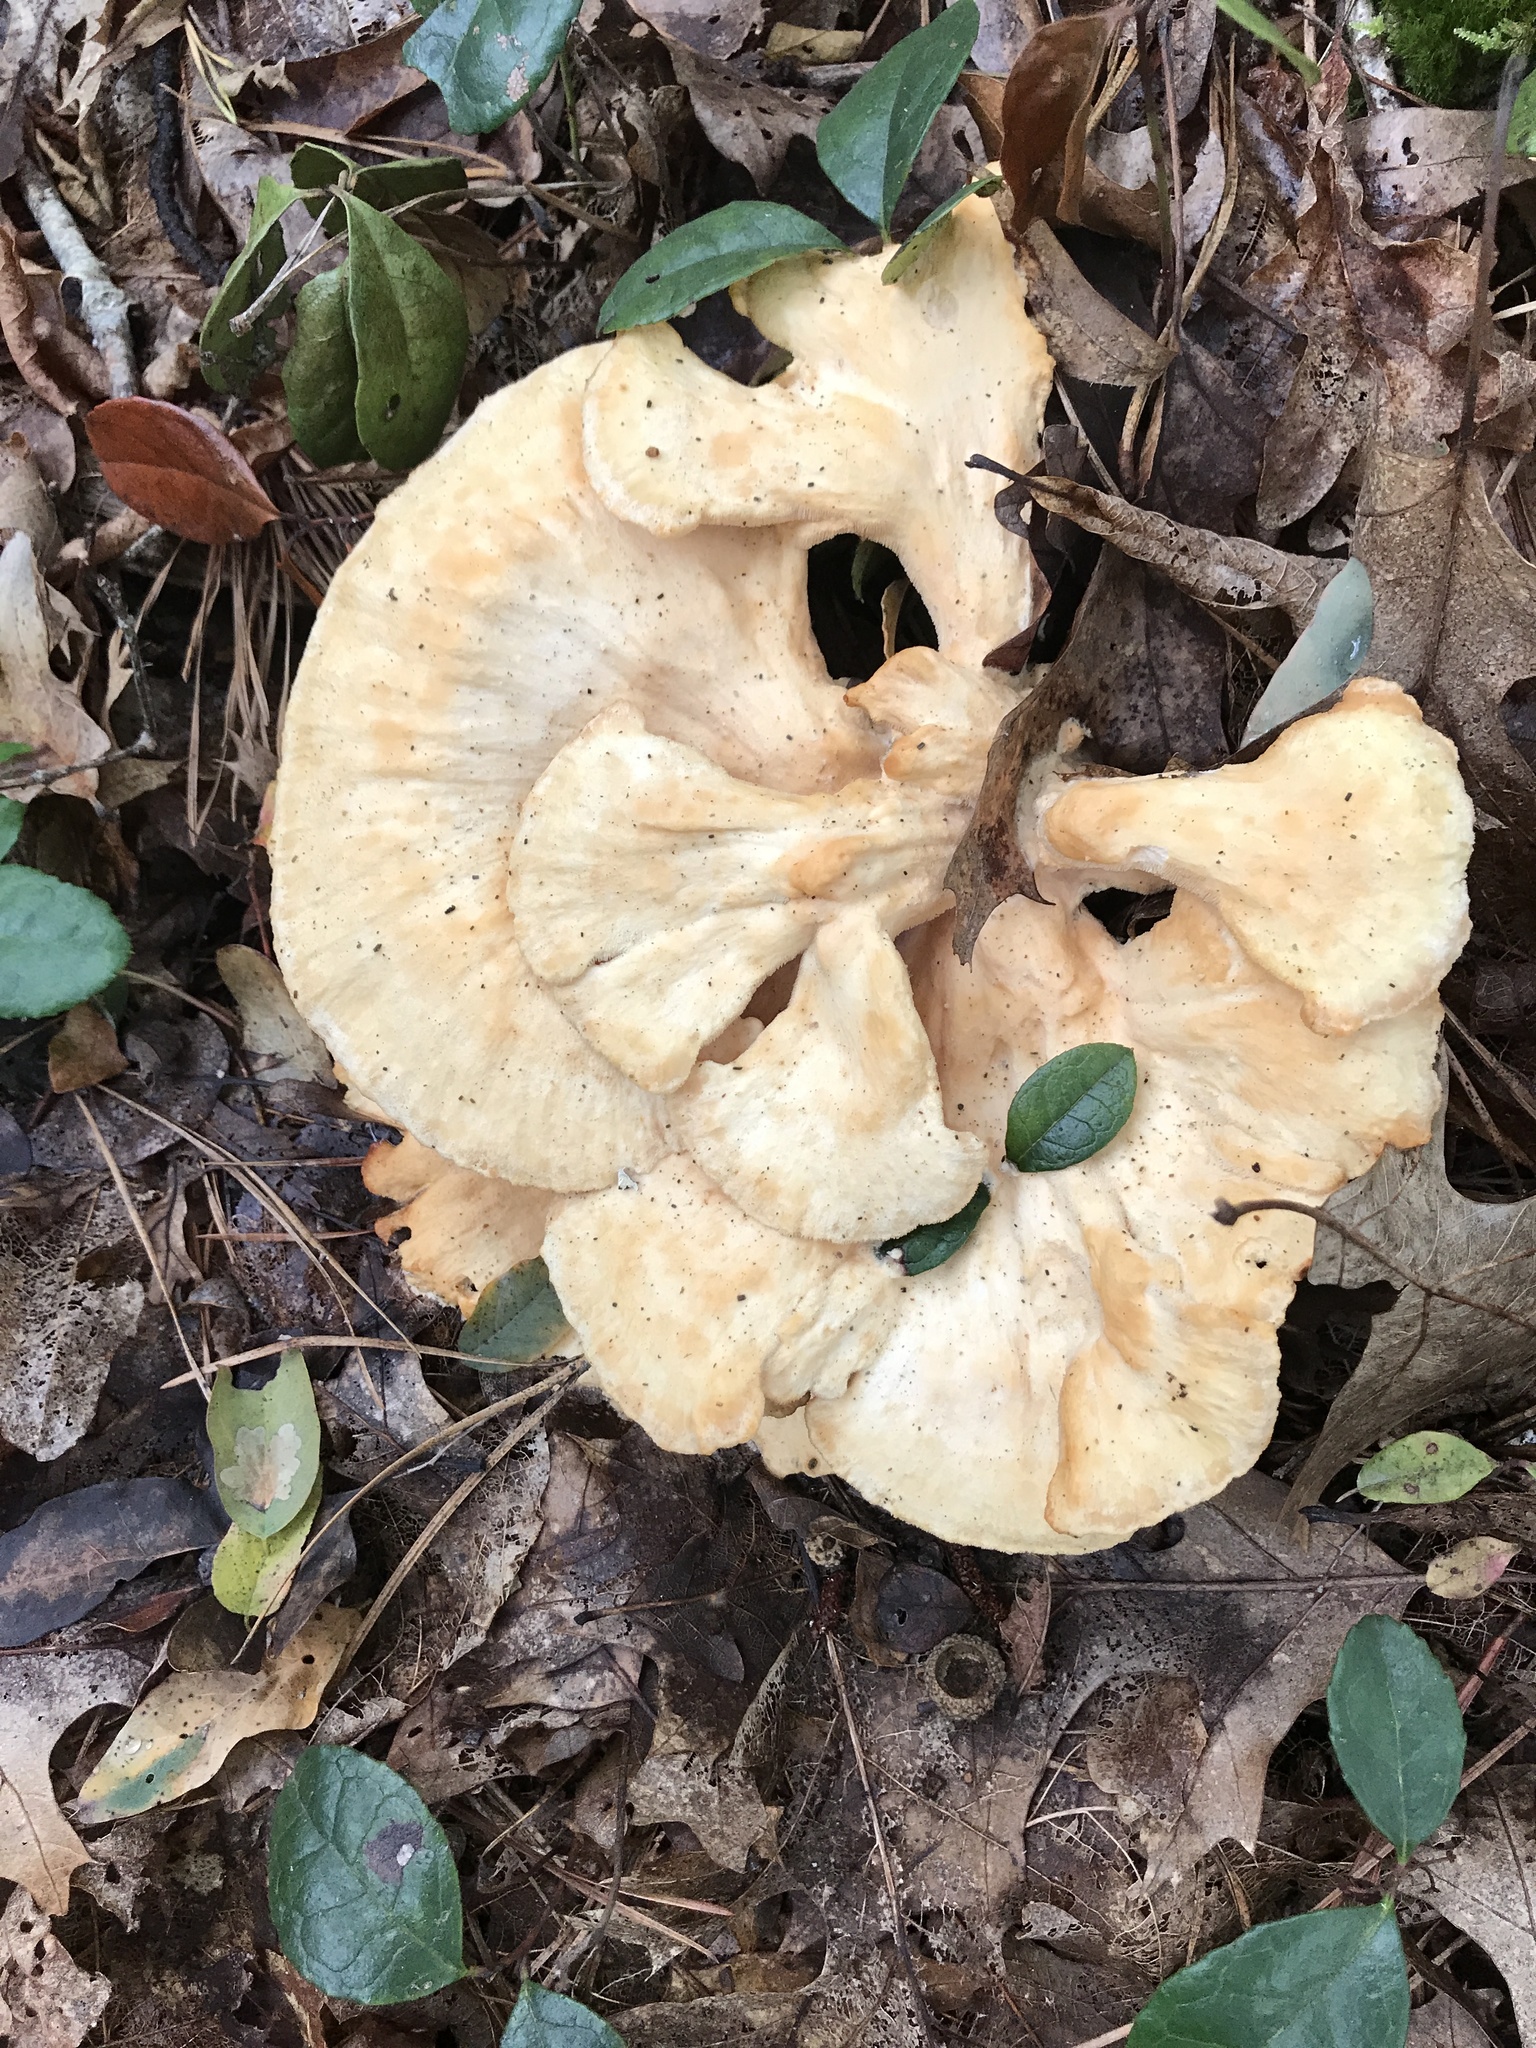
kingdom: Fungi
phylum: Basidiomycota
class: Agaricomycetes
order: Polyporales
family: Laetiporaceae
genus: Laetiporus
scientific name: Laetiporus sulphureus
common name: Chicken of the woods
